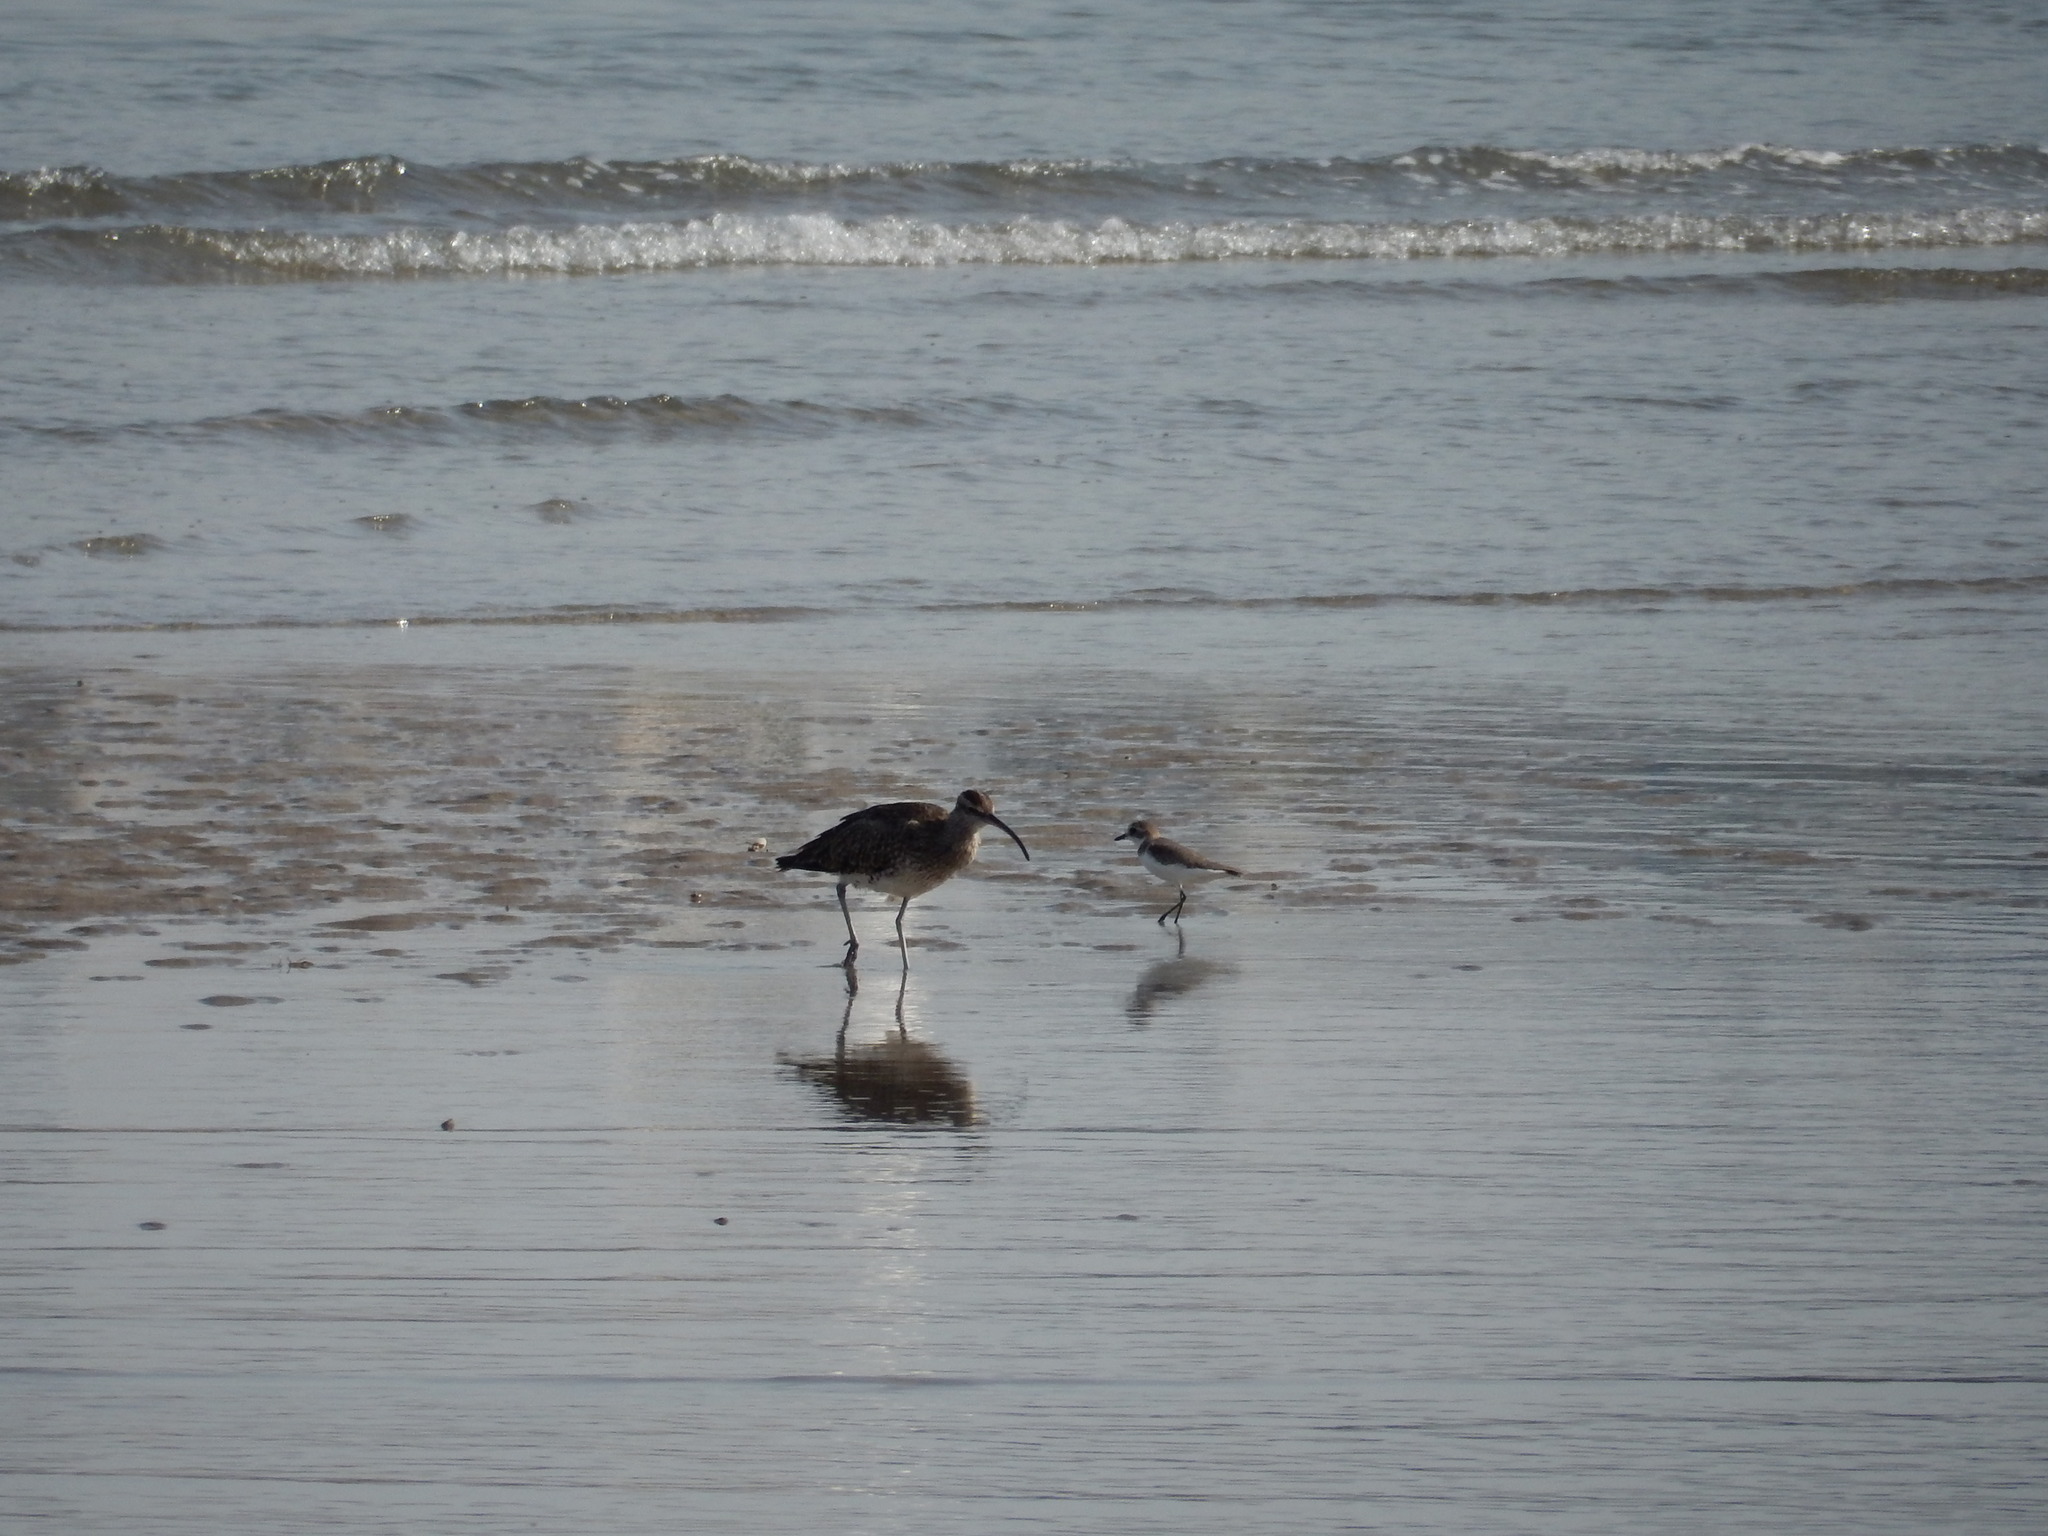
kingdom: Animalia
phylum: Chordata
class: Aves
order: Charadriiformes
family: Scolopacidae
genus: Numenius
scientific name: Numenius phaeopus
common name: Whimbrel
